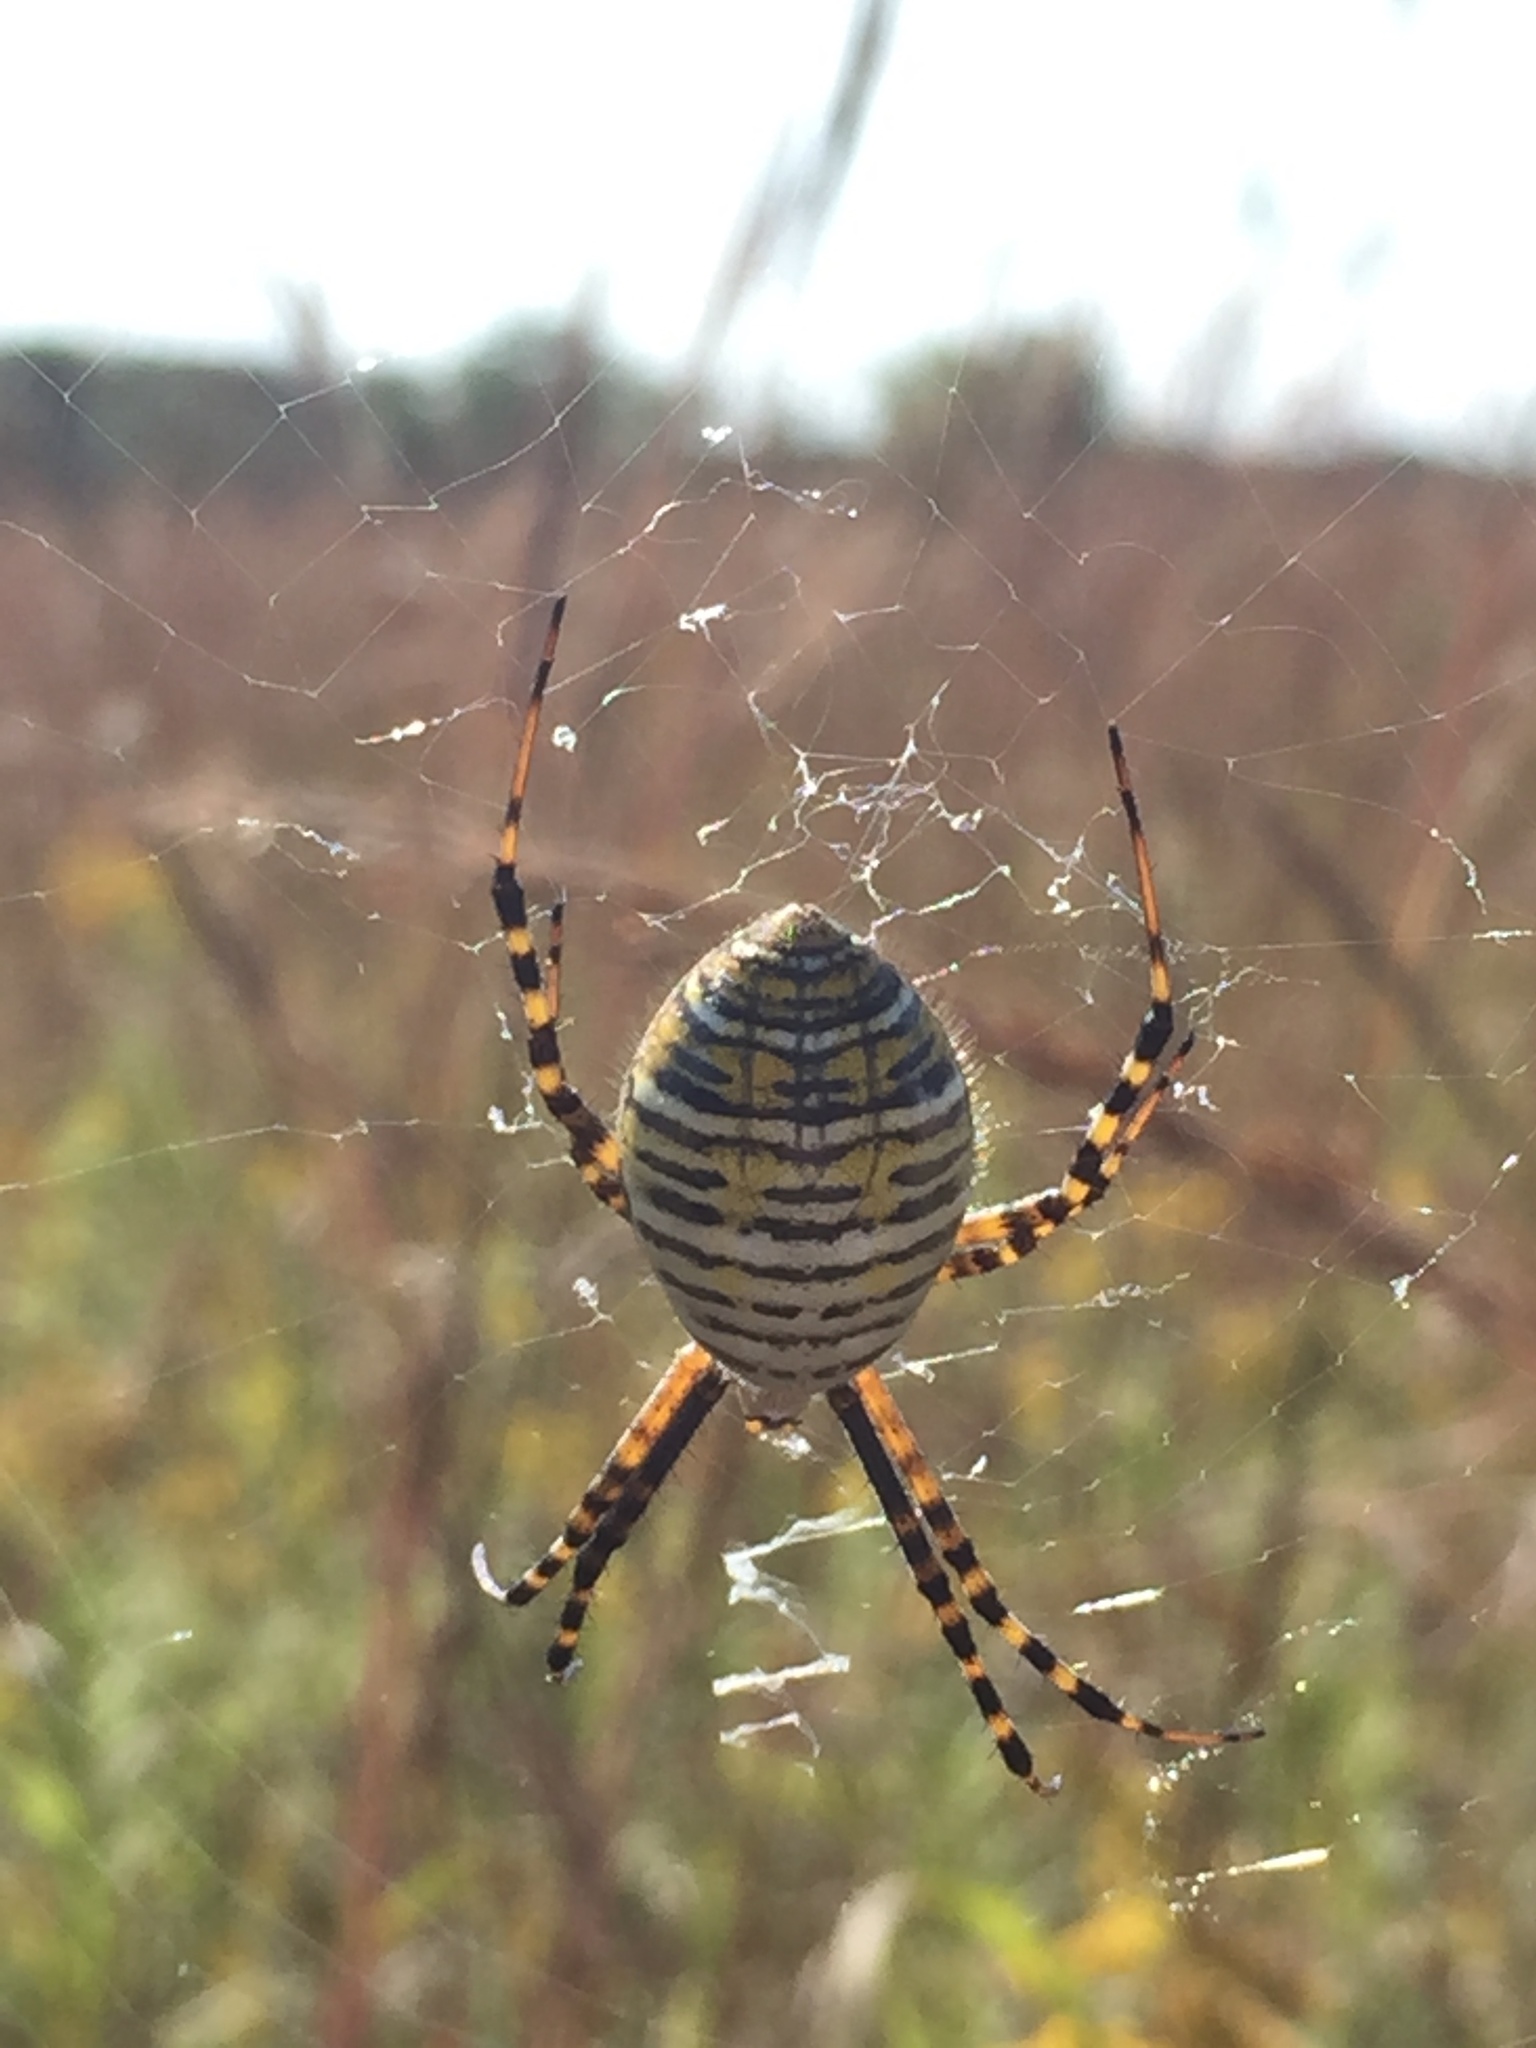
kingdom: Animalia
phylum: Arthropoda
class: Arachnida
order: Araneae
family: Araneidae
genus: Argiope
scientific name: Argiope trifasciata
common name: Banded garden spider
